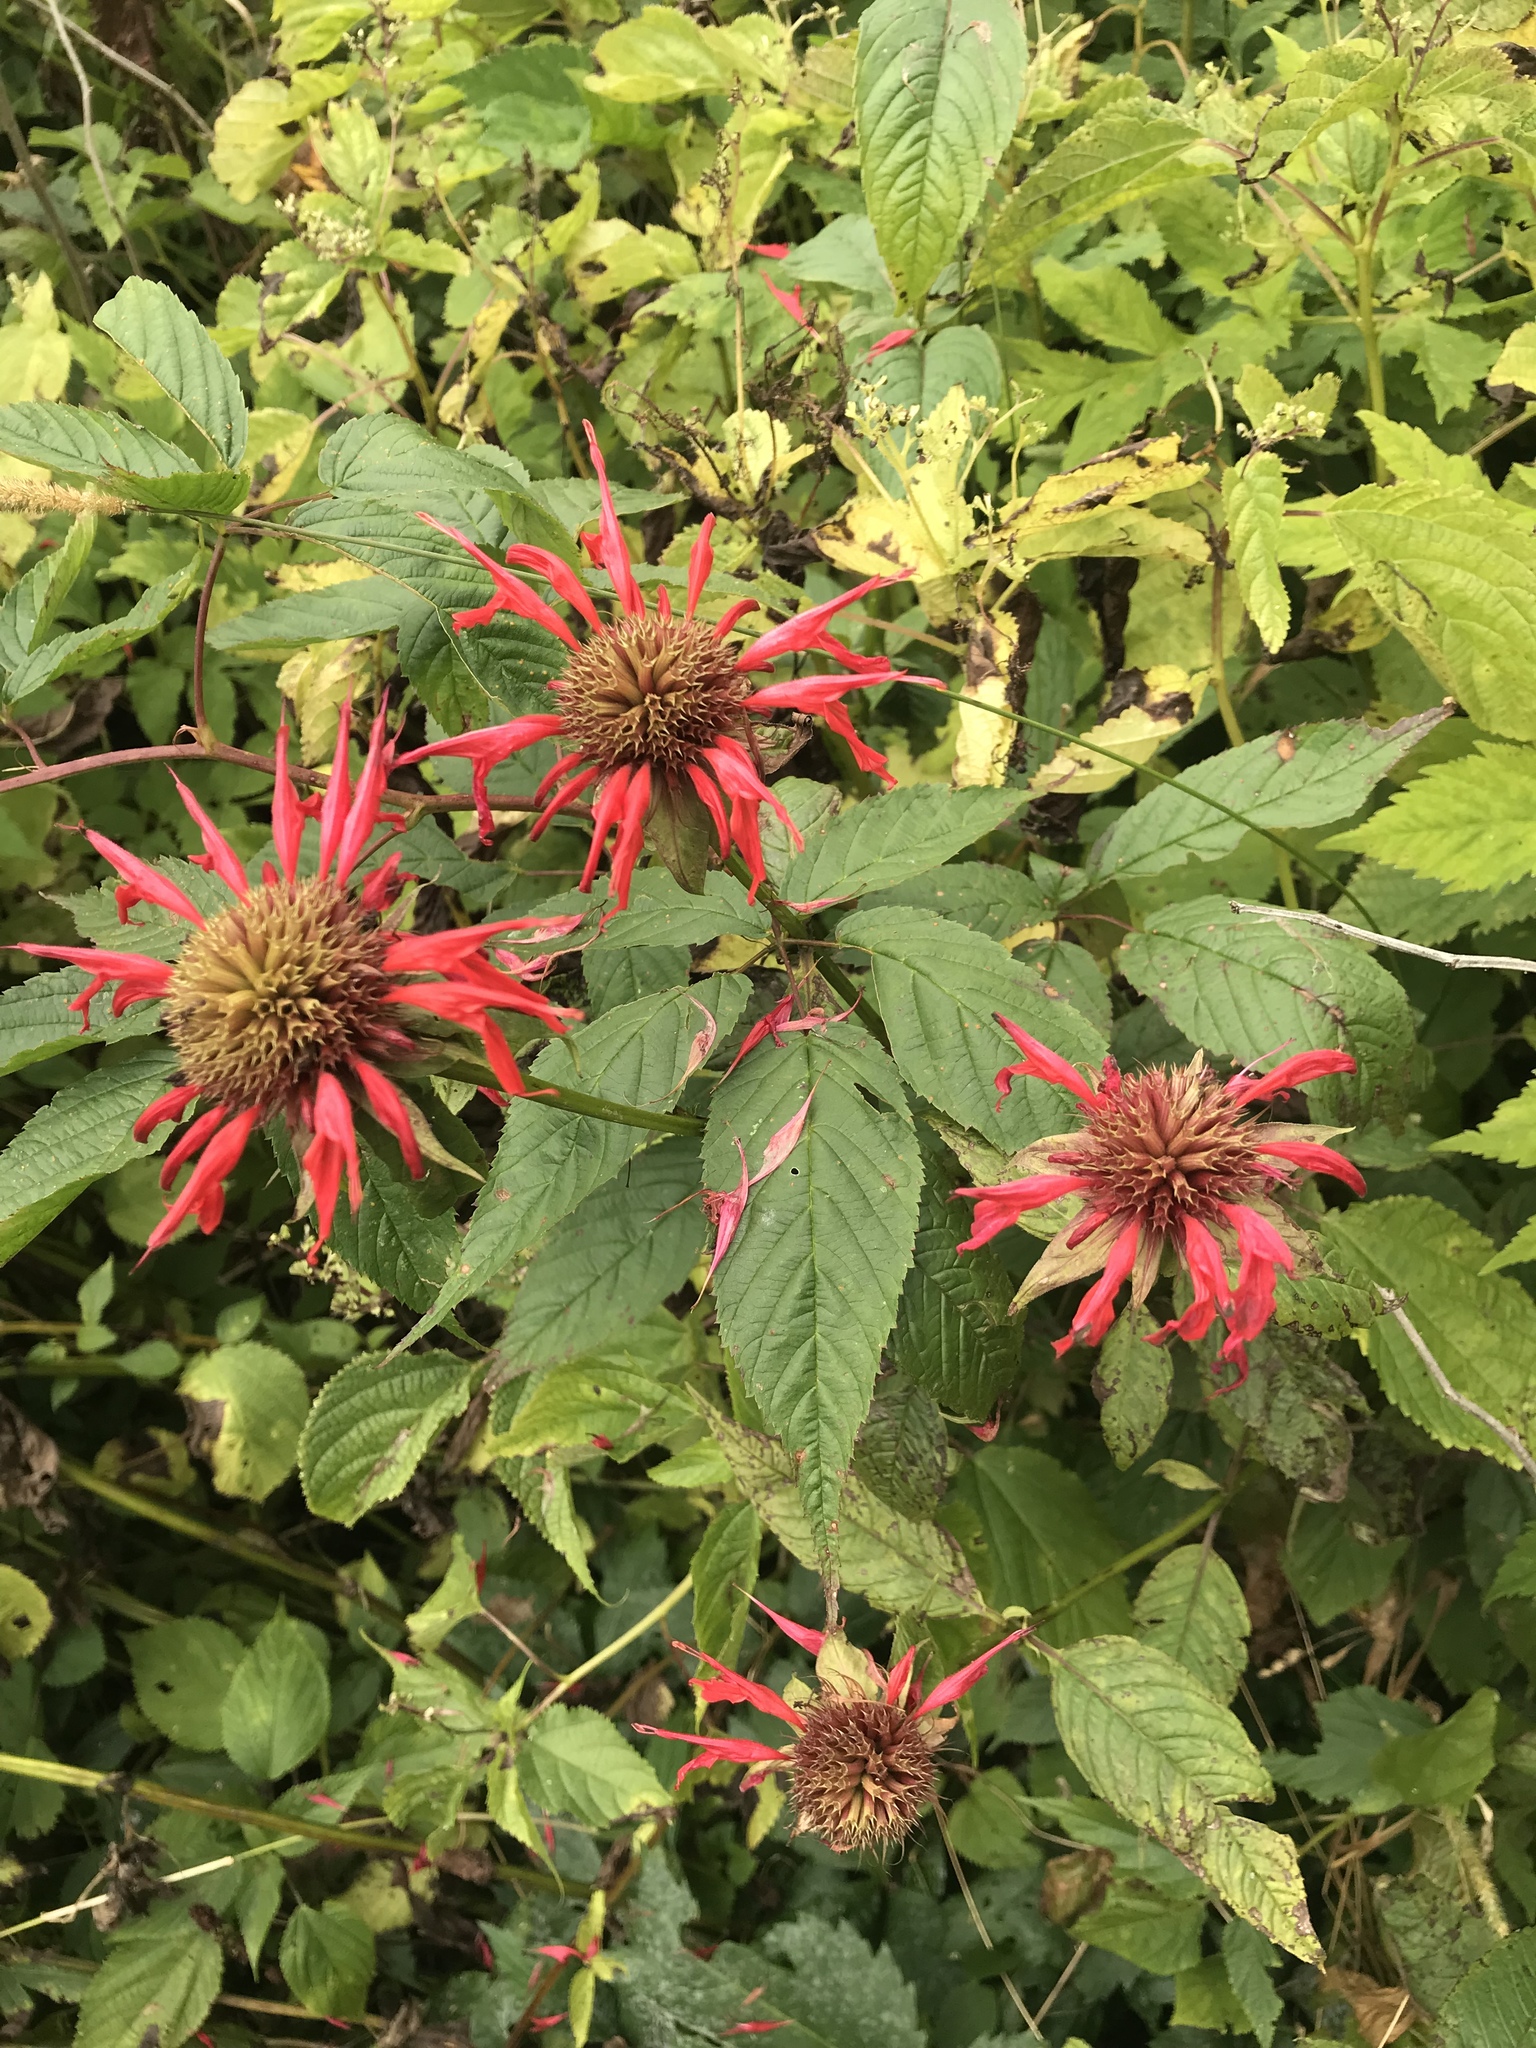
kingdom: Plantae
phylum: Tracheophyta
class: Magnoliopsida
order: Lamiales
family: Lamiaceae
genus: Monarda
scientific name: Monarda didyma
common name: Beebalm
